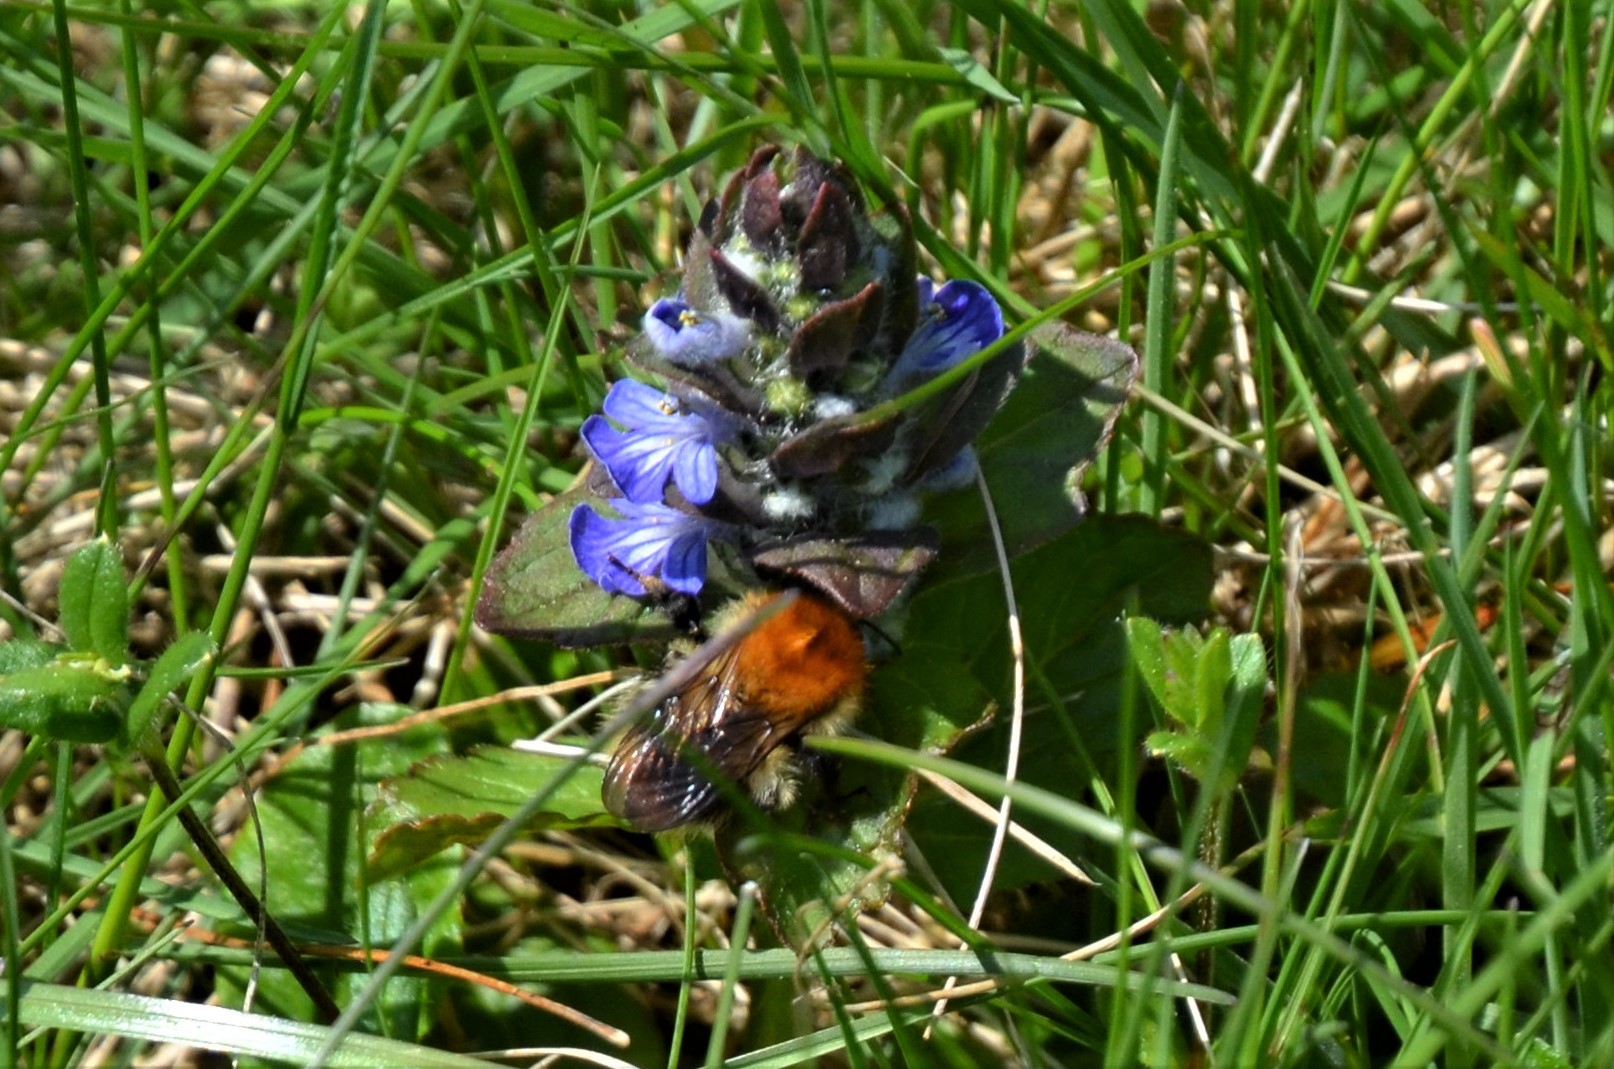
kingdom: Animalia
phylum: Arthropoda
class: Insecta
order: Hymenoptera
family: Apidae
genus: Bombus
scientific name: Bombus pascuorum
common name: Common carder bee
